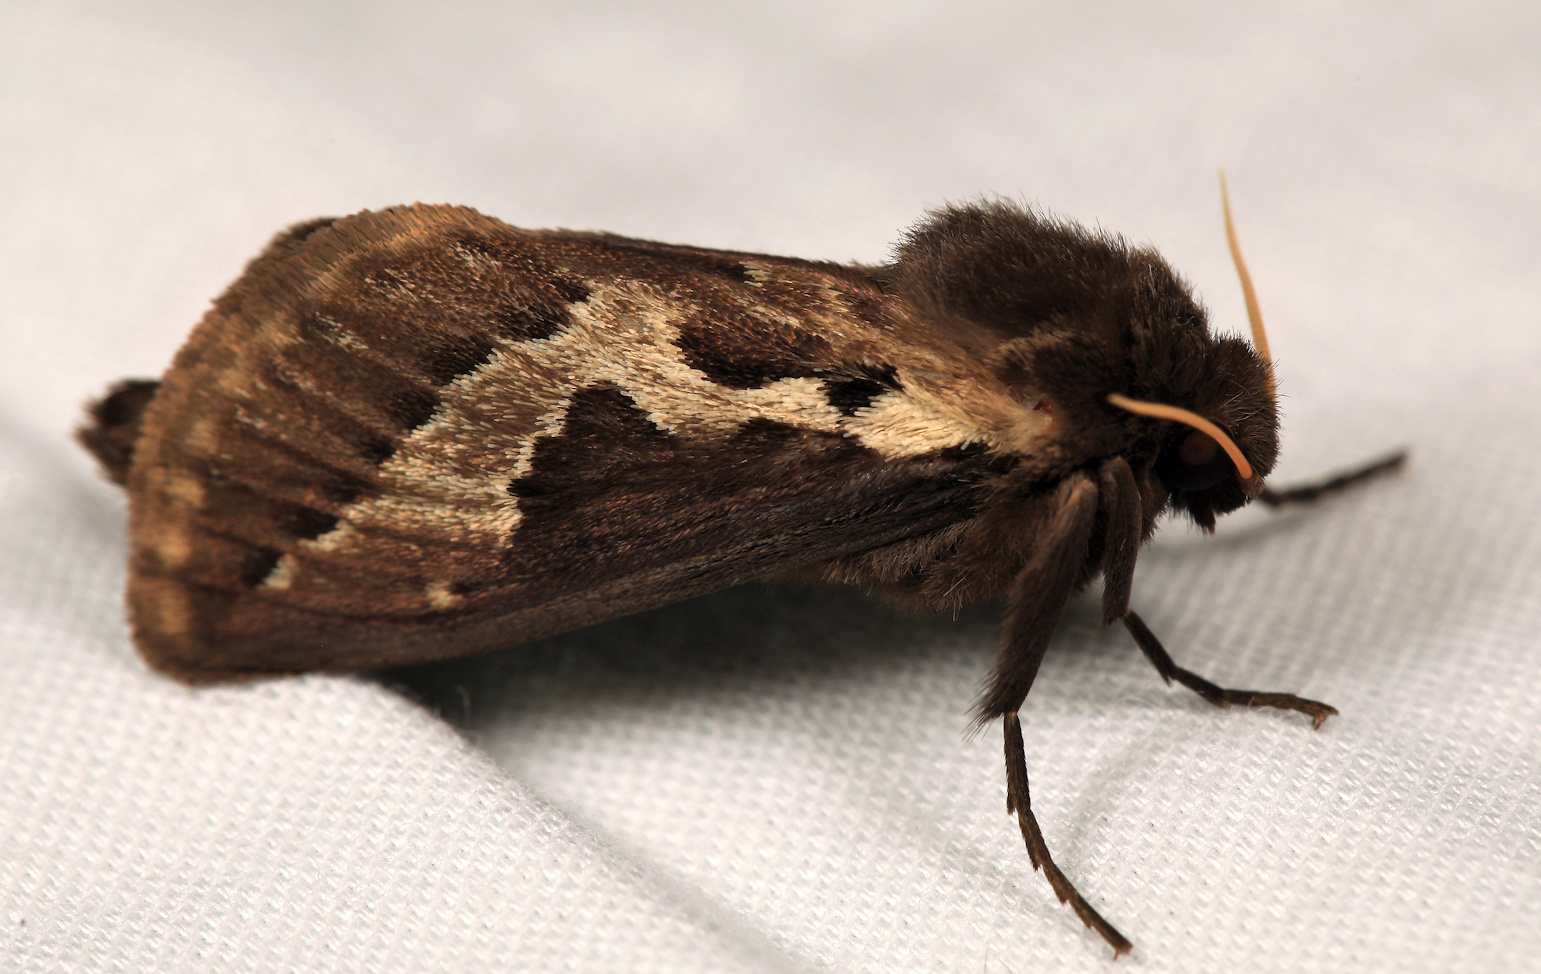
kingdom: Animalia
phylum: Arthropoda
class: Insecta
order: Lepidoptera
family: Hepialidae
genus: Eudalaca
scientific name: Eudalaca ammon
